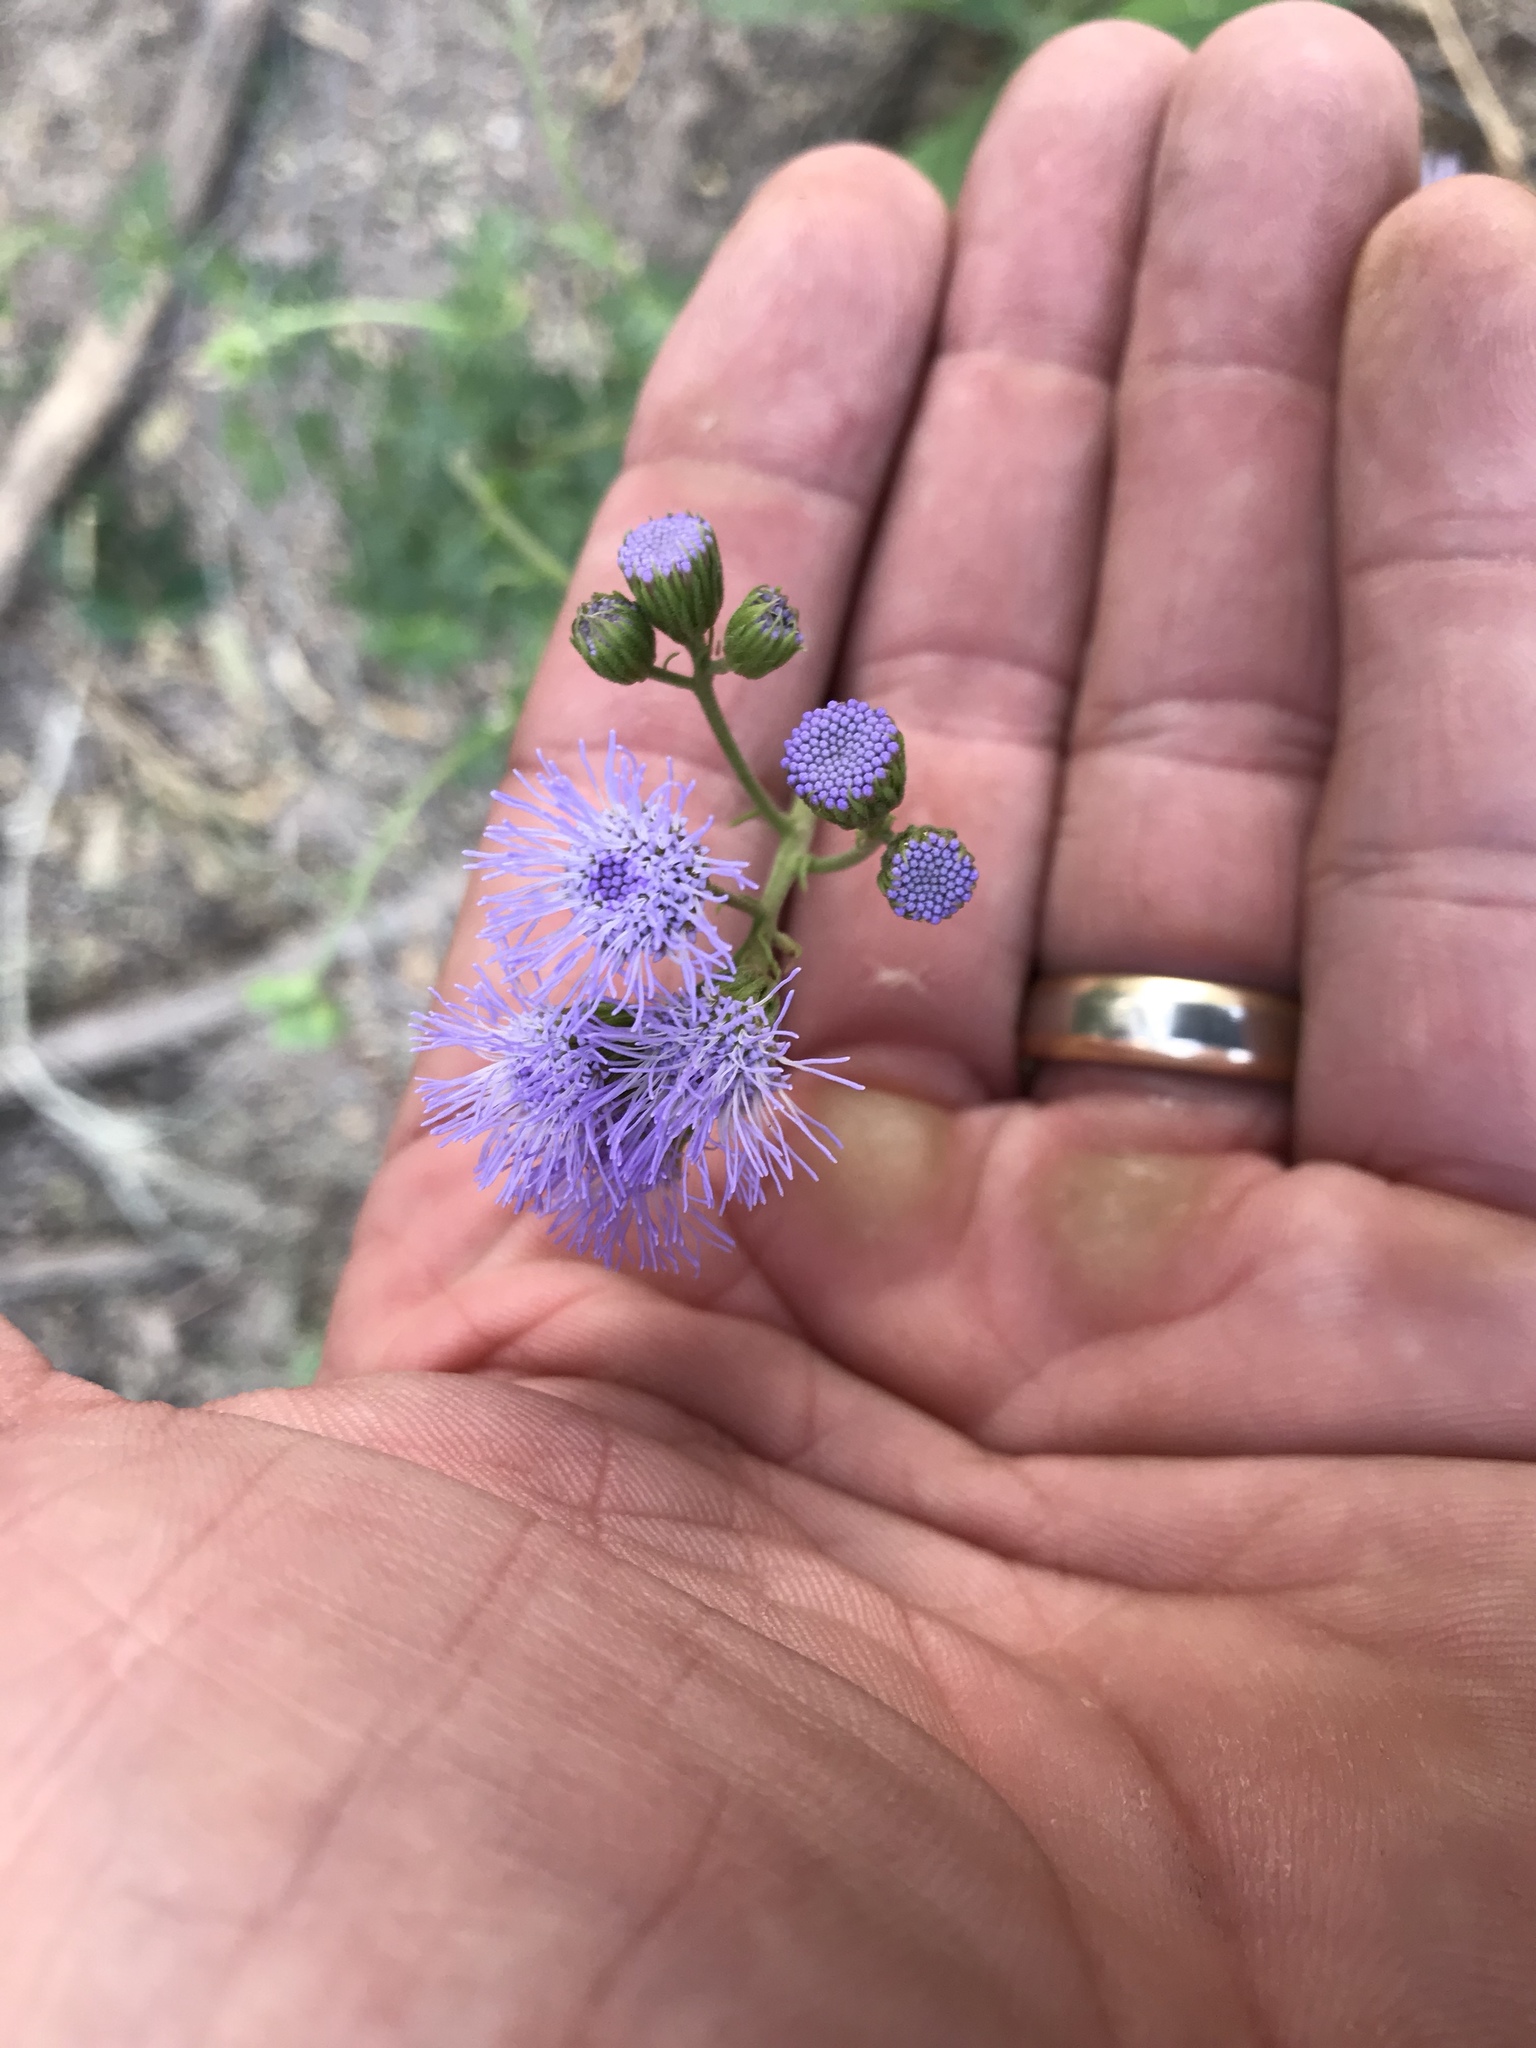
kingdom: Plantae
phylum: Tracheophyta
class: Magnoliopsida
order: Asterales
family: Asteraceae
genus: Conoclinium
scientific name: Conoclinium dissectum
